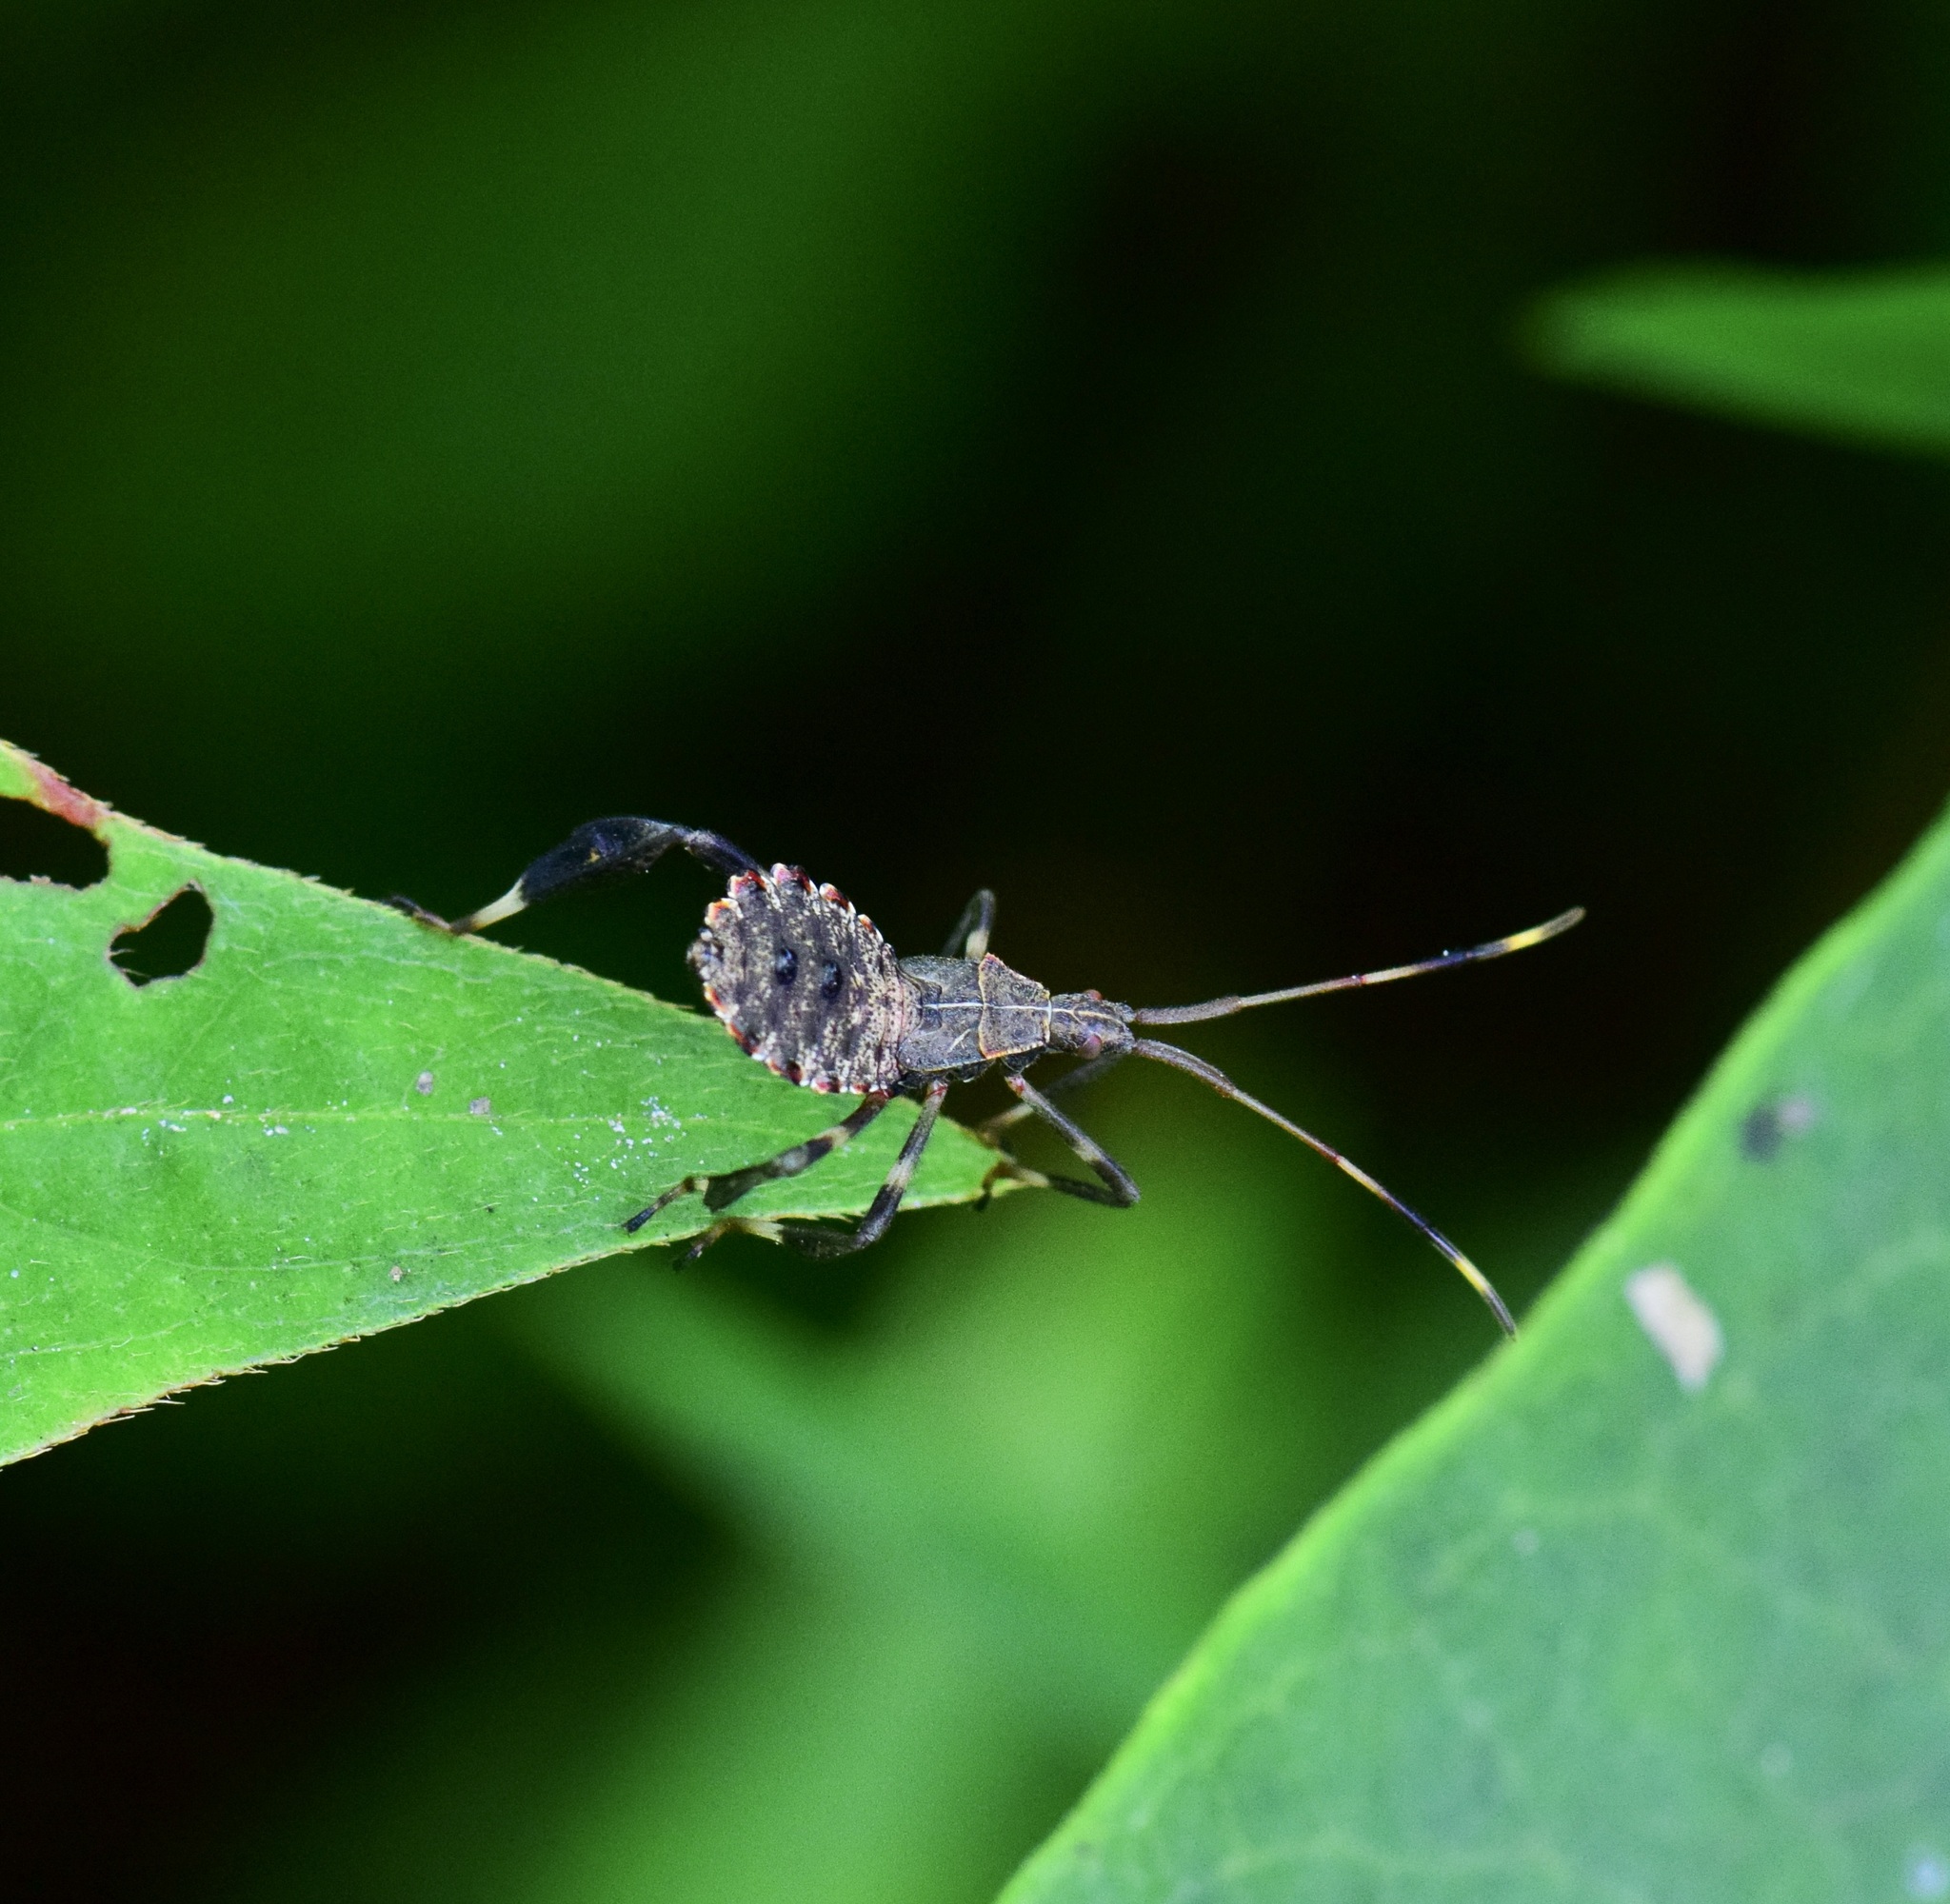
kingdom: Animalia
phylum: Arthropoda
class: Insecta
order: Hemiptera
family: Coreidae
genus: Acanthocephala
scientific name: Acanthocephala terminalis
